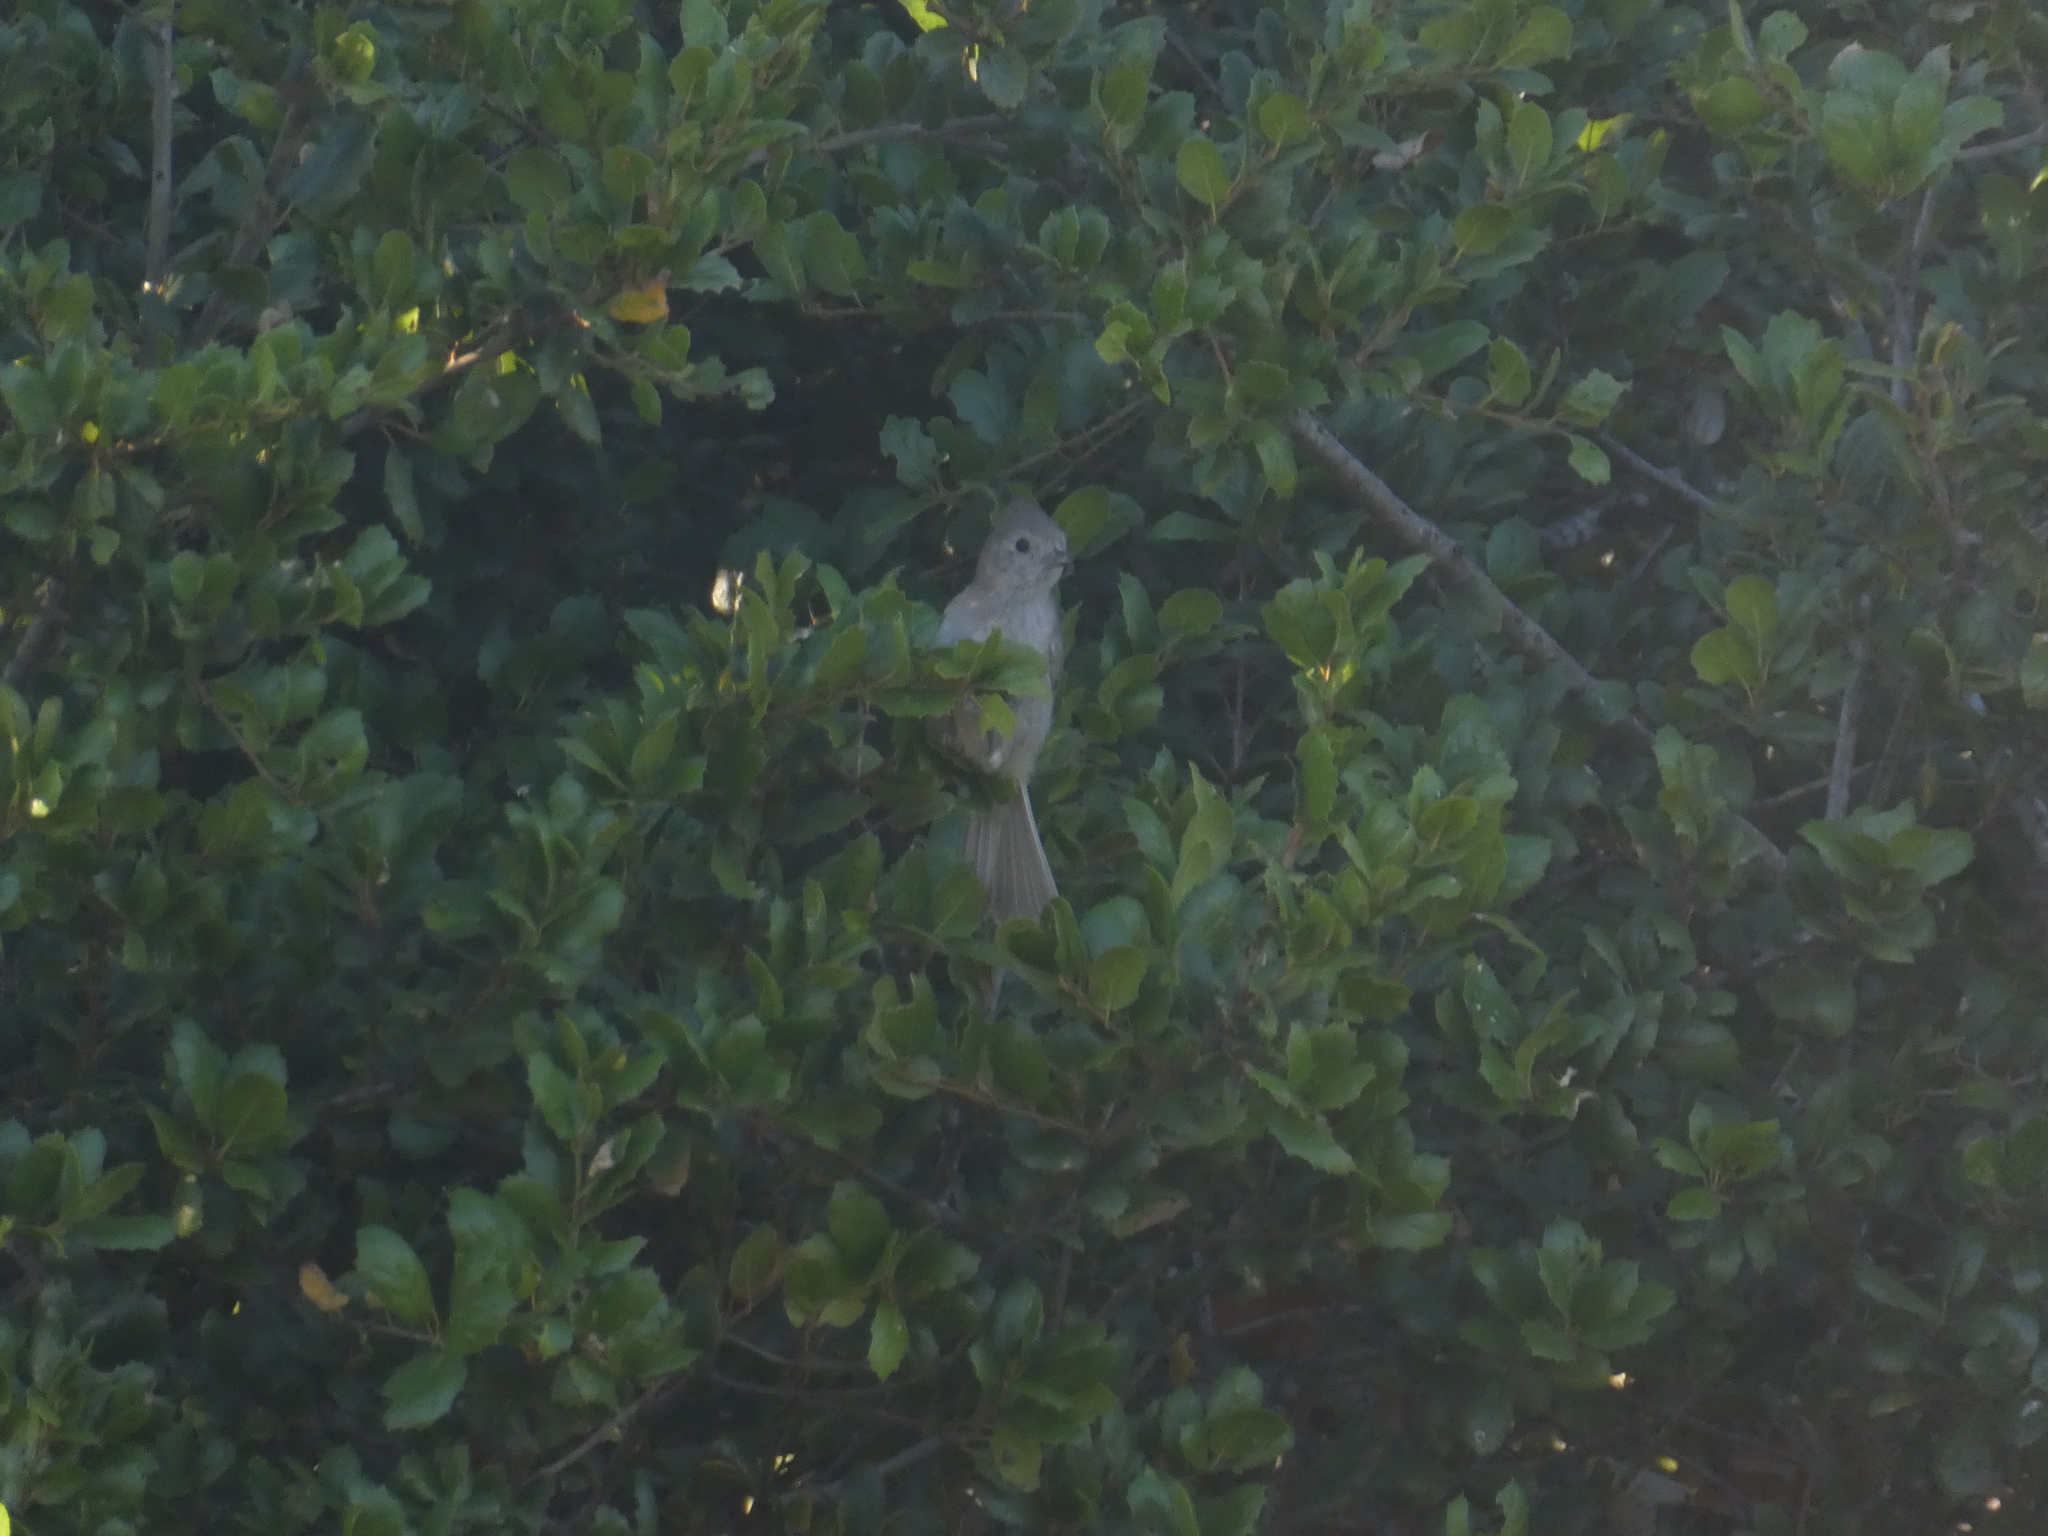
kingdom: Animalia
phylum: Chordata
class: Aves
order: Passeriformes
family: Paridae
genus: Baeolophus
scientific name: Baeolophus inornatus
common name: Oak titmouse
